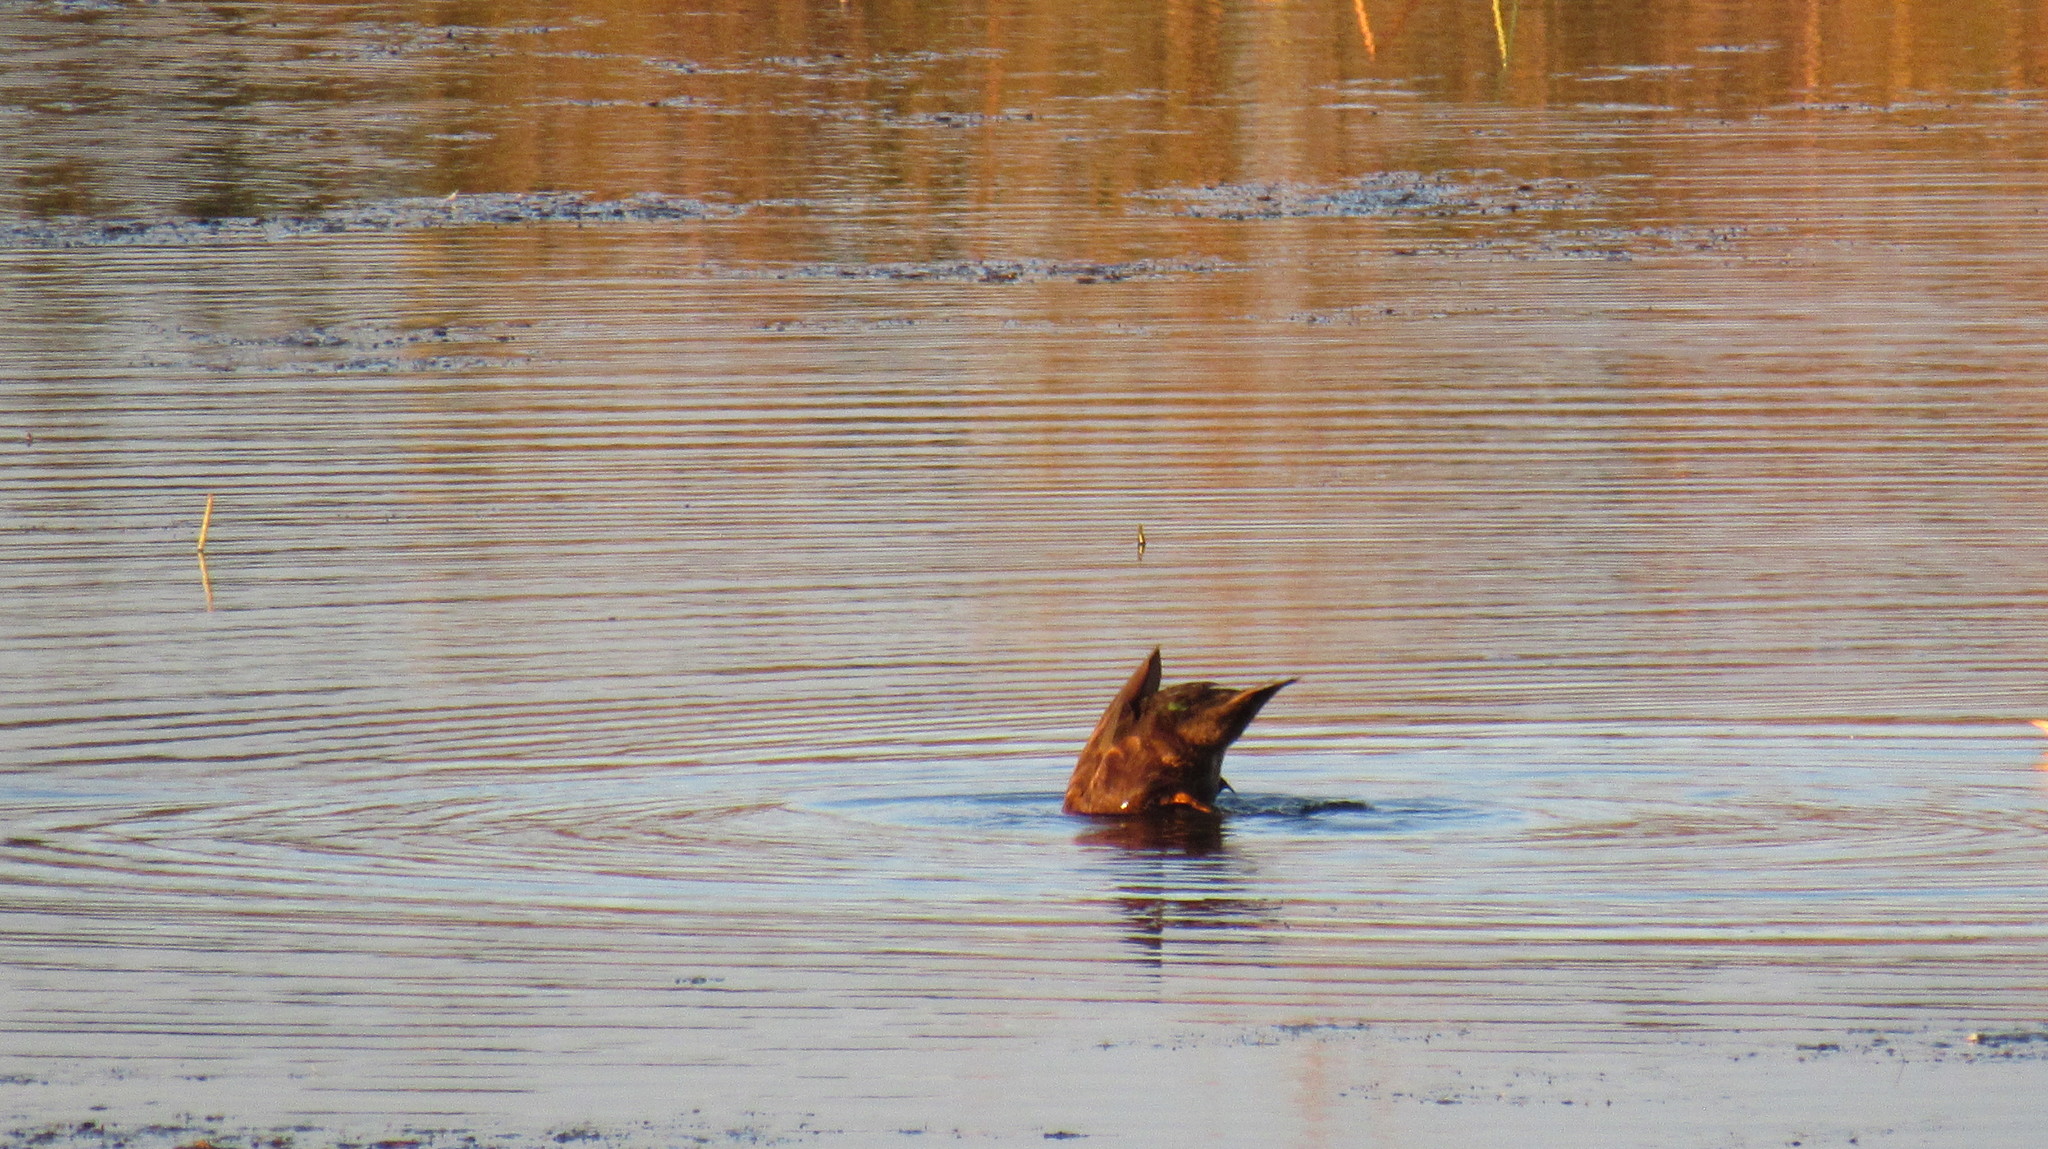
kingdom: Animalia
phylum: Chordata
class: Aves
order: Anseriformes
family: Anatidae
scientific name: Anatidae
